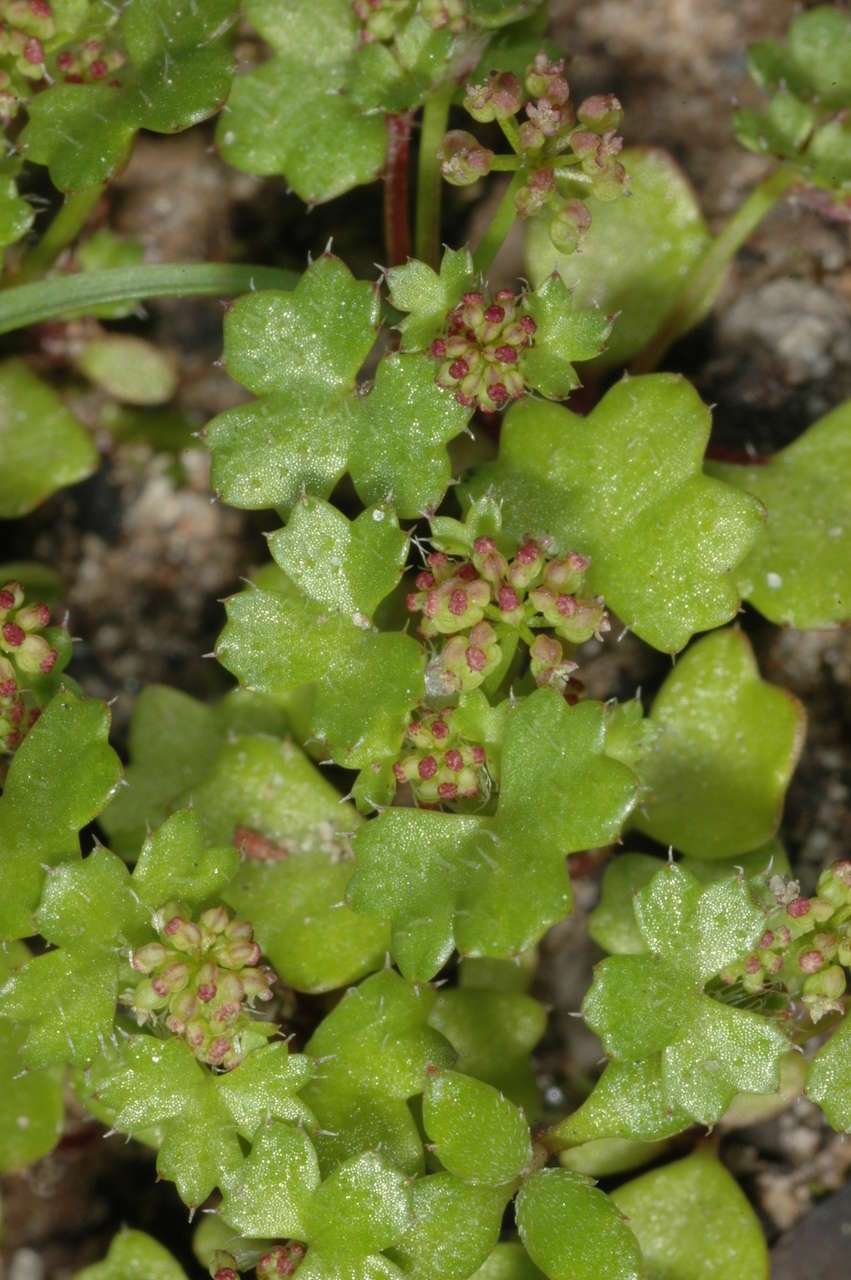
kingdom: Plantae
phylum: Tracheophyta
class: Magnoliopsida
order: Apiales
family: Araliaceae
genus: Hydrocotyle
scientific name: Hydrocotyle callicarpa
